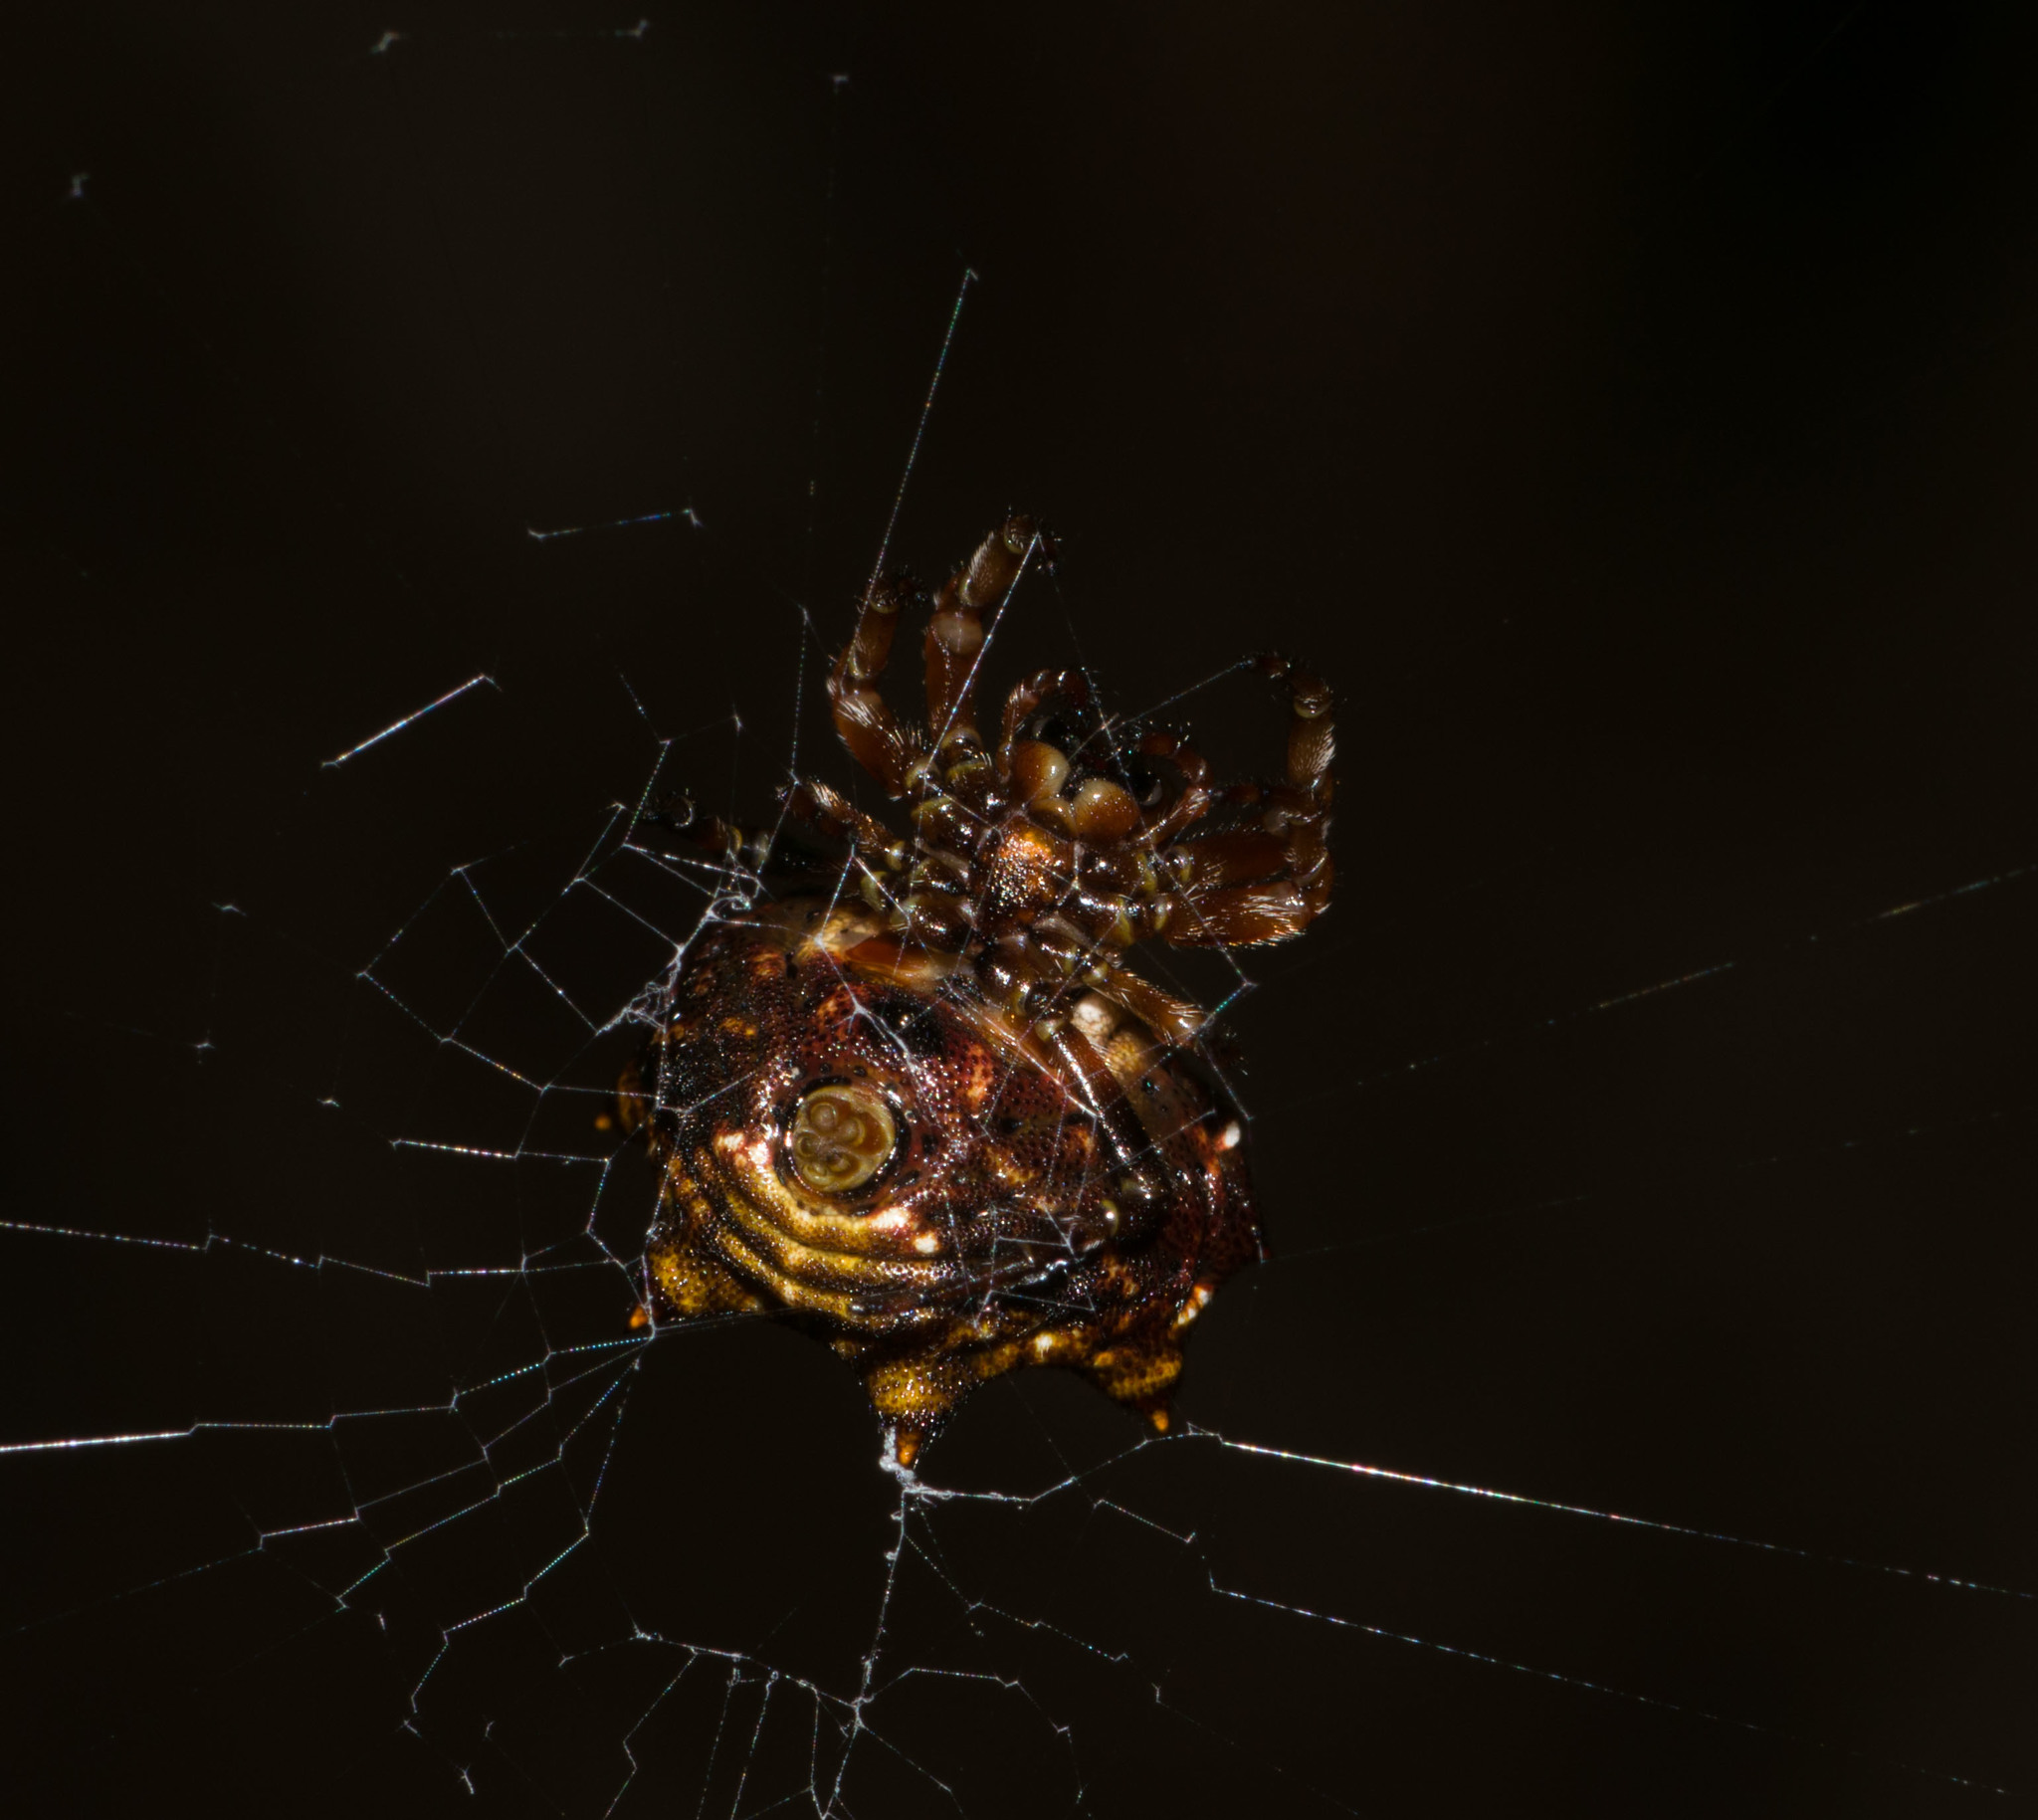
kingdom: Animalia
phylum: Arthropoda
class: Arachnida
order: Araneae
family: Araneidae
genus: Thelacantha
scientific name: Thelacantha brevispina
